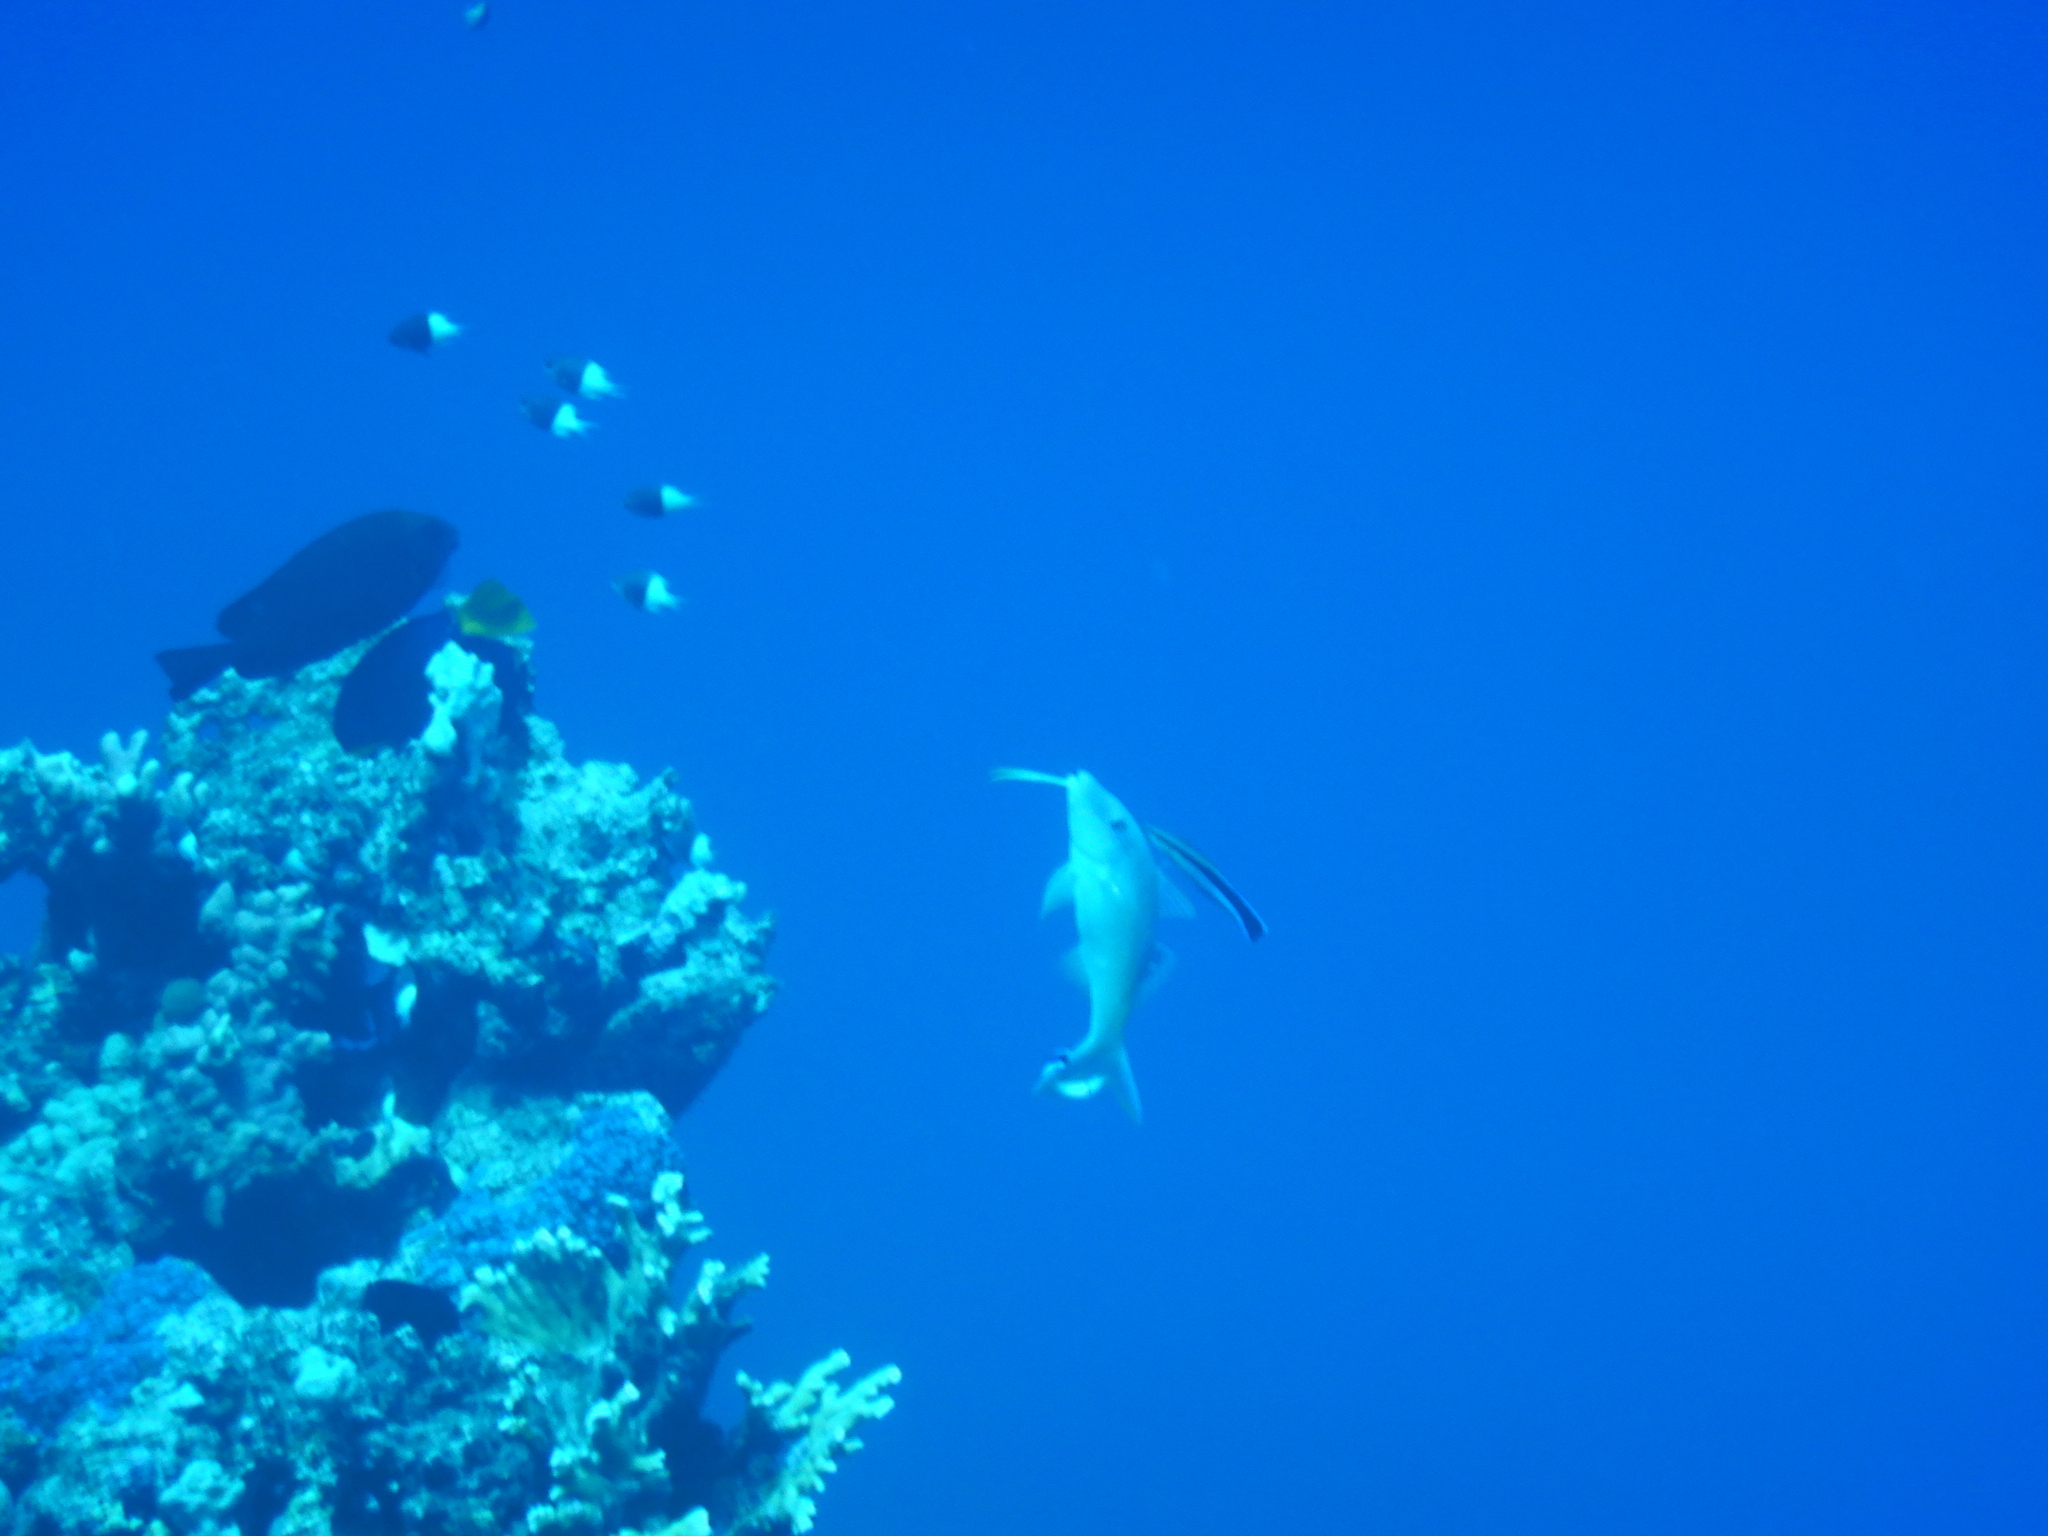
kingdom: Animalia
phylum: Chordata
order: Perciformes
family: Pomacentridae
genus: Chromis
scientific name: Chromis dimidiata
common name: Half-and-half chromis
